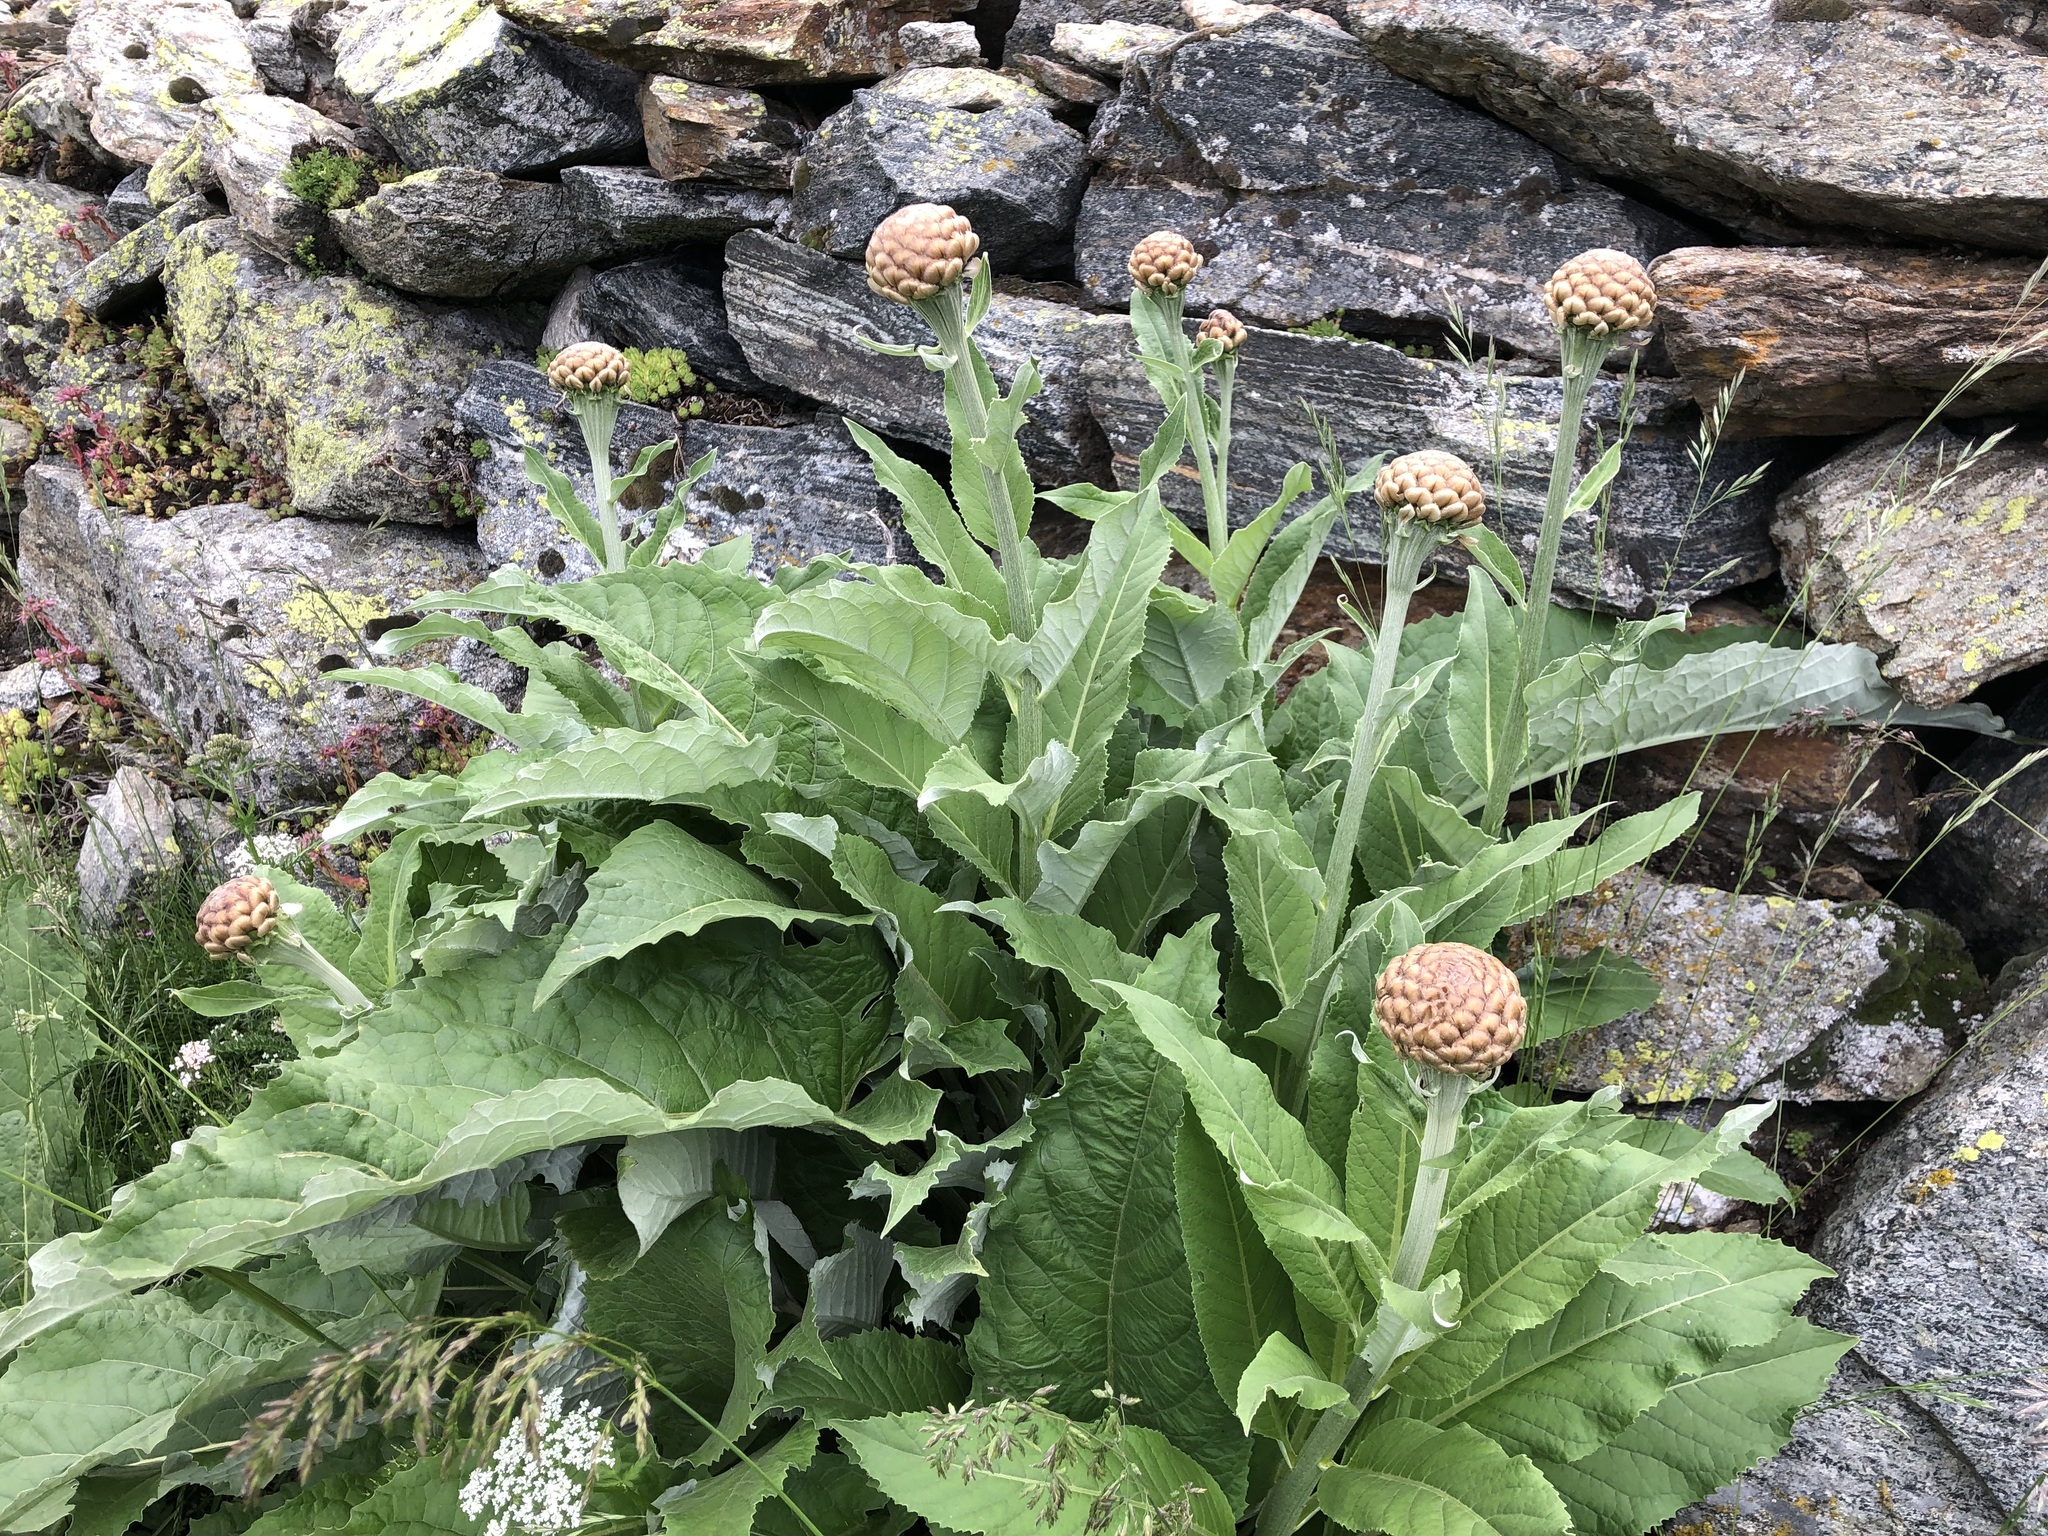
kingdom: Plantae
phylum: Tracheophyta
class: Magnoliopsida
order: Asterales
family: Asteraceae
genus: Leuzea
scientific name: Leuzea rhapontica
